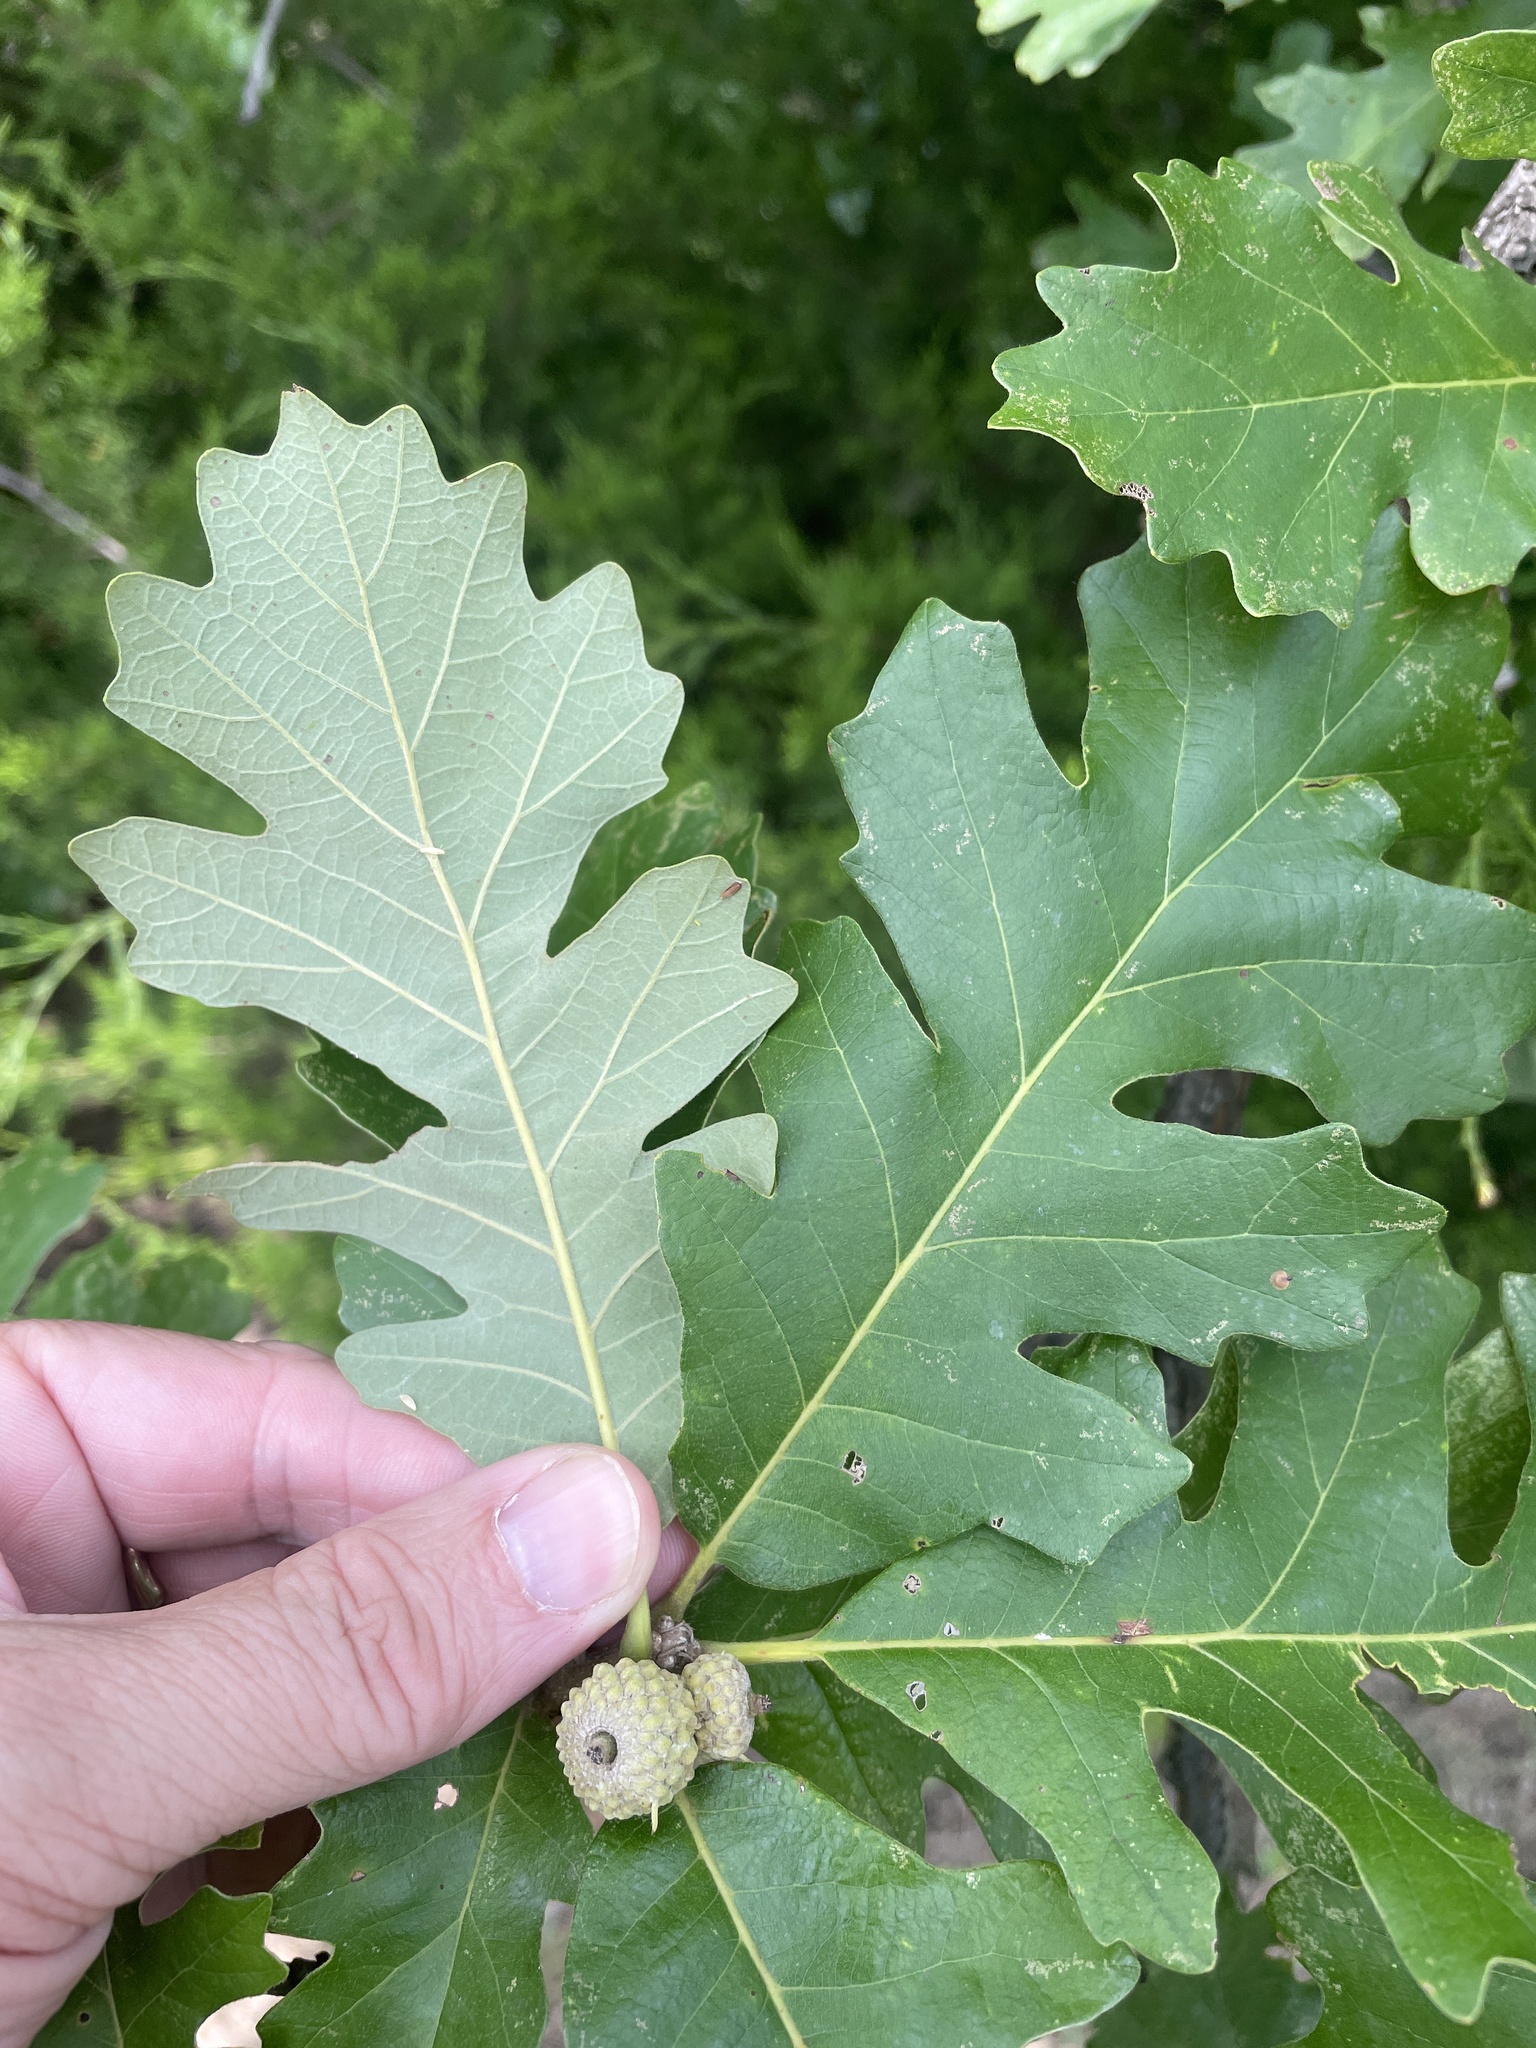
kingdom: Plantae
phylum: Tracheophyta
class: Magnoliopsida
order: Fagales
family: Fagaceae
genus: Quercus
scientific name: Quercus macrocarpa
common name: Bur oak
